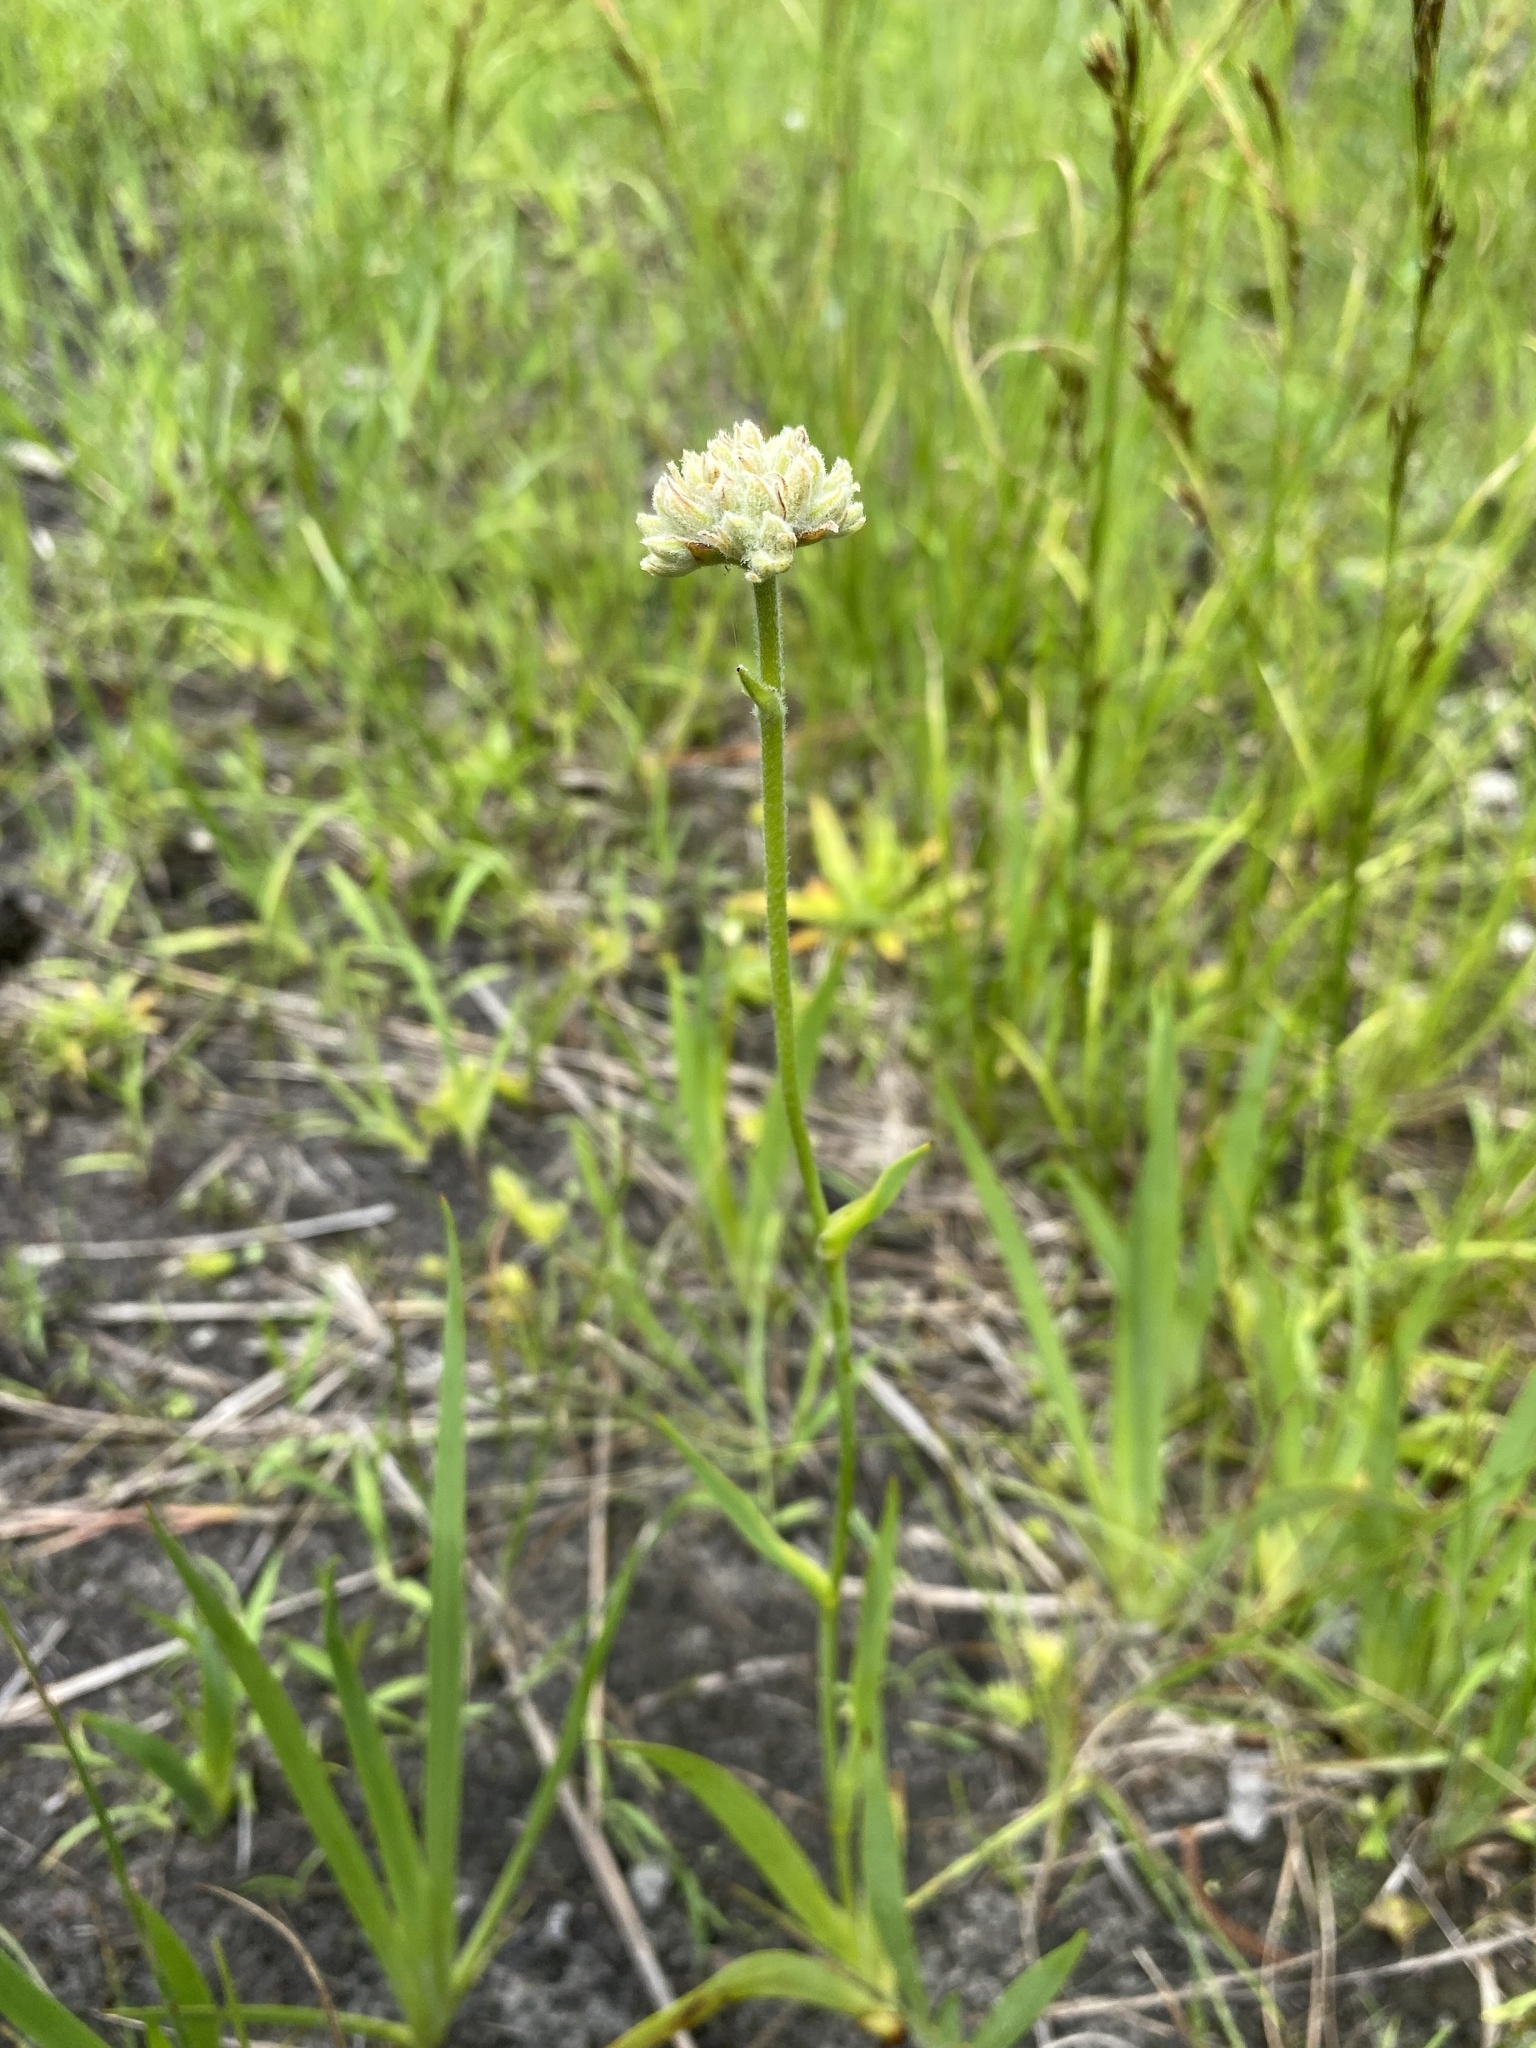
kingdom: Plantae
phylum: Tracheophyta
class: Liliopsida
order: Commelinales
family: Haemodoraceae
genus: Lachnanthes
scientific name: Lachnanthes caroliana
